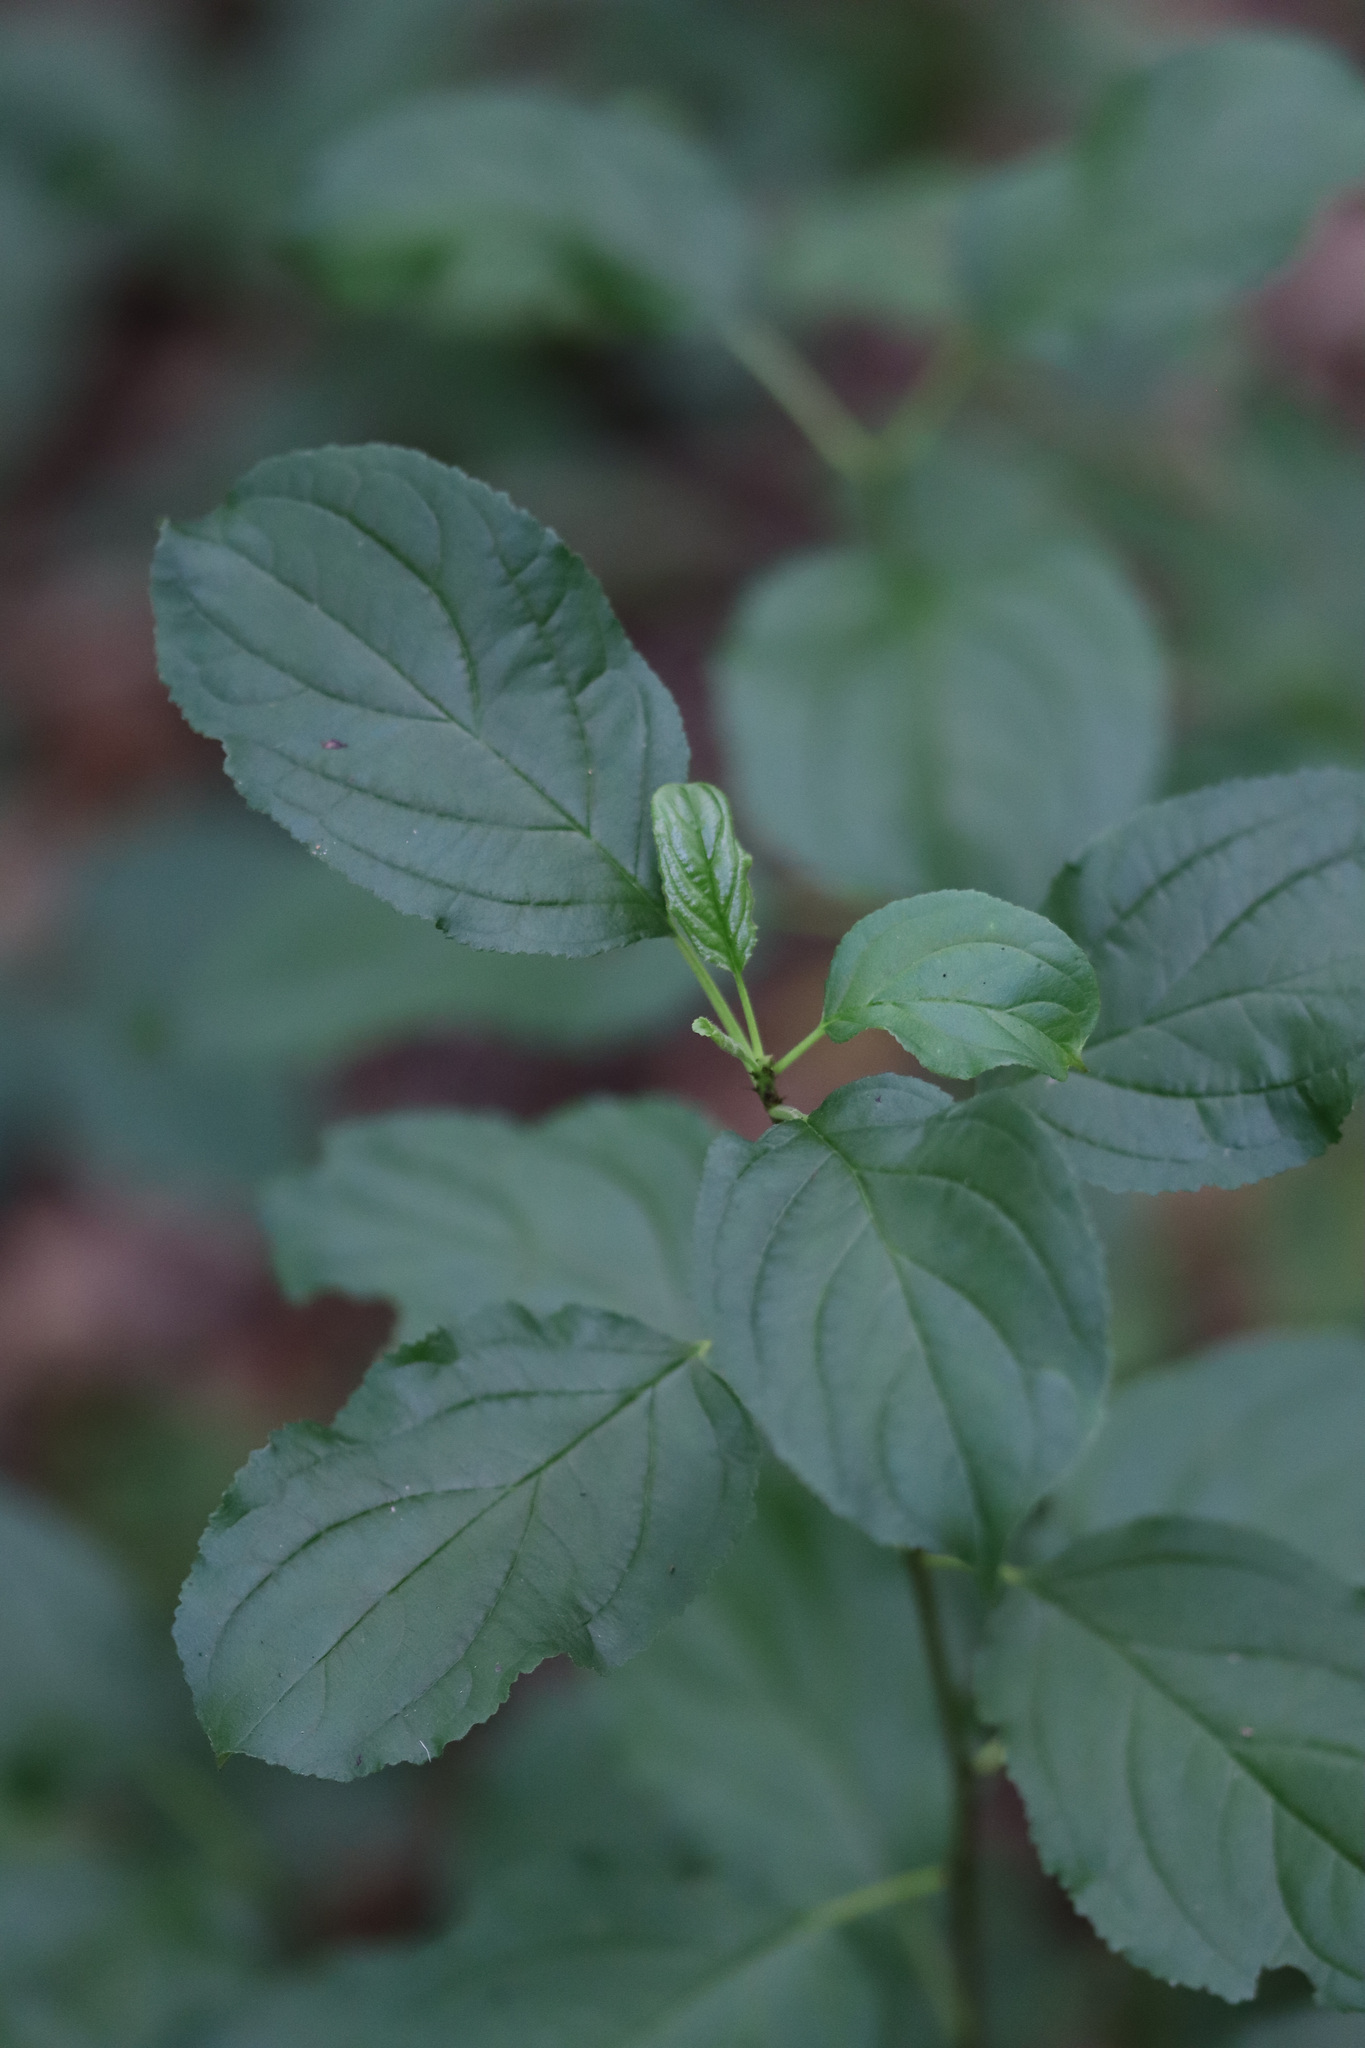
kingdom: Plantae
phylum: Tracheophyta
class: Magnoliopsida
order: Rosales
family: Rhamnaceae
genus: Rhamnus
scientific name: Rhamnus cathartica
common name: Common buckthorn
